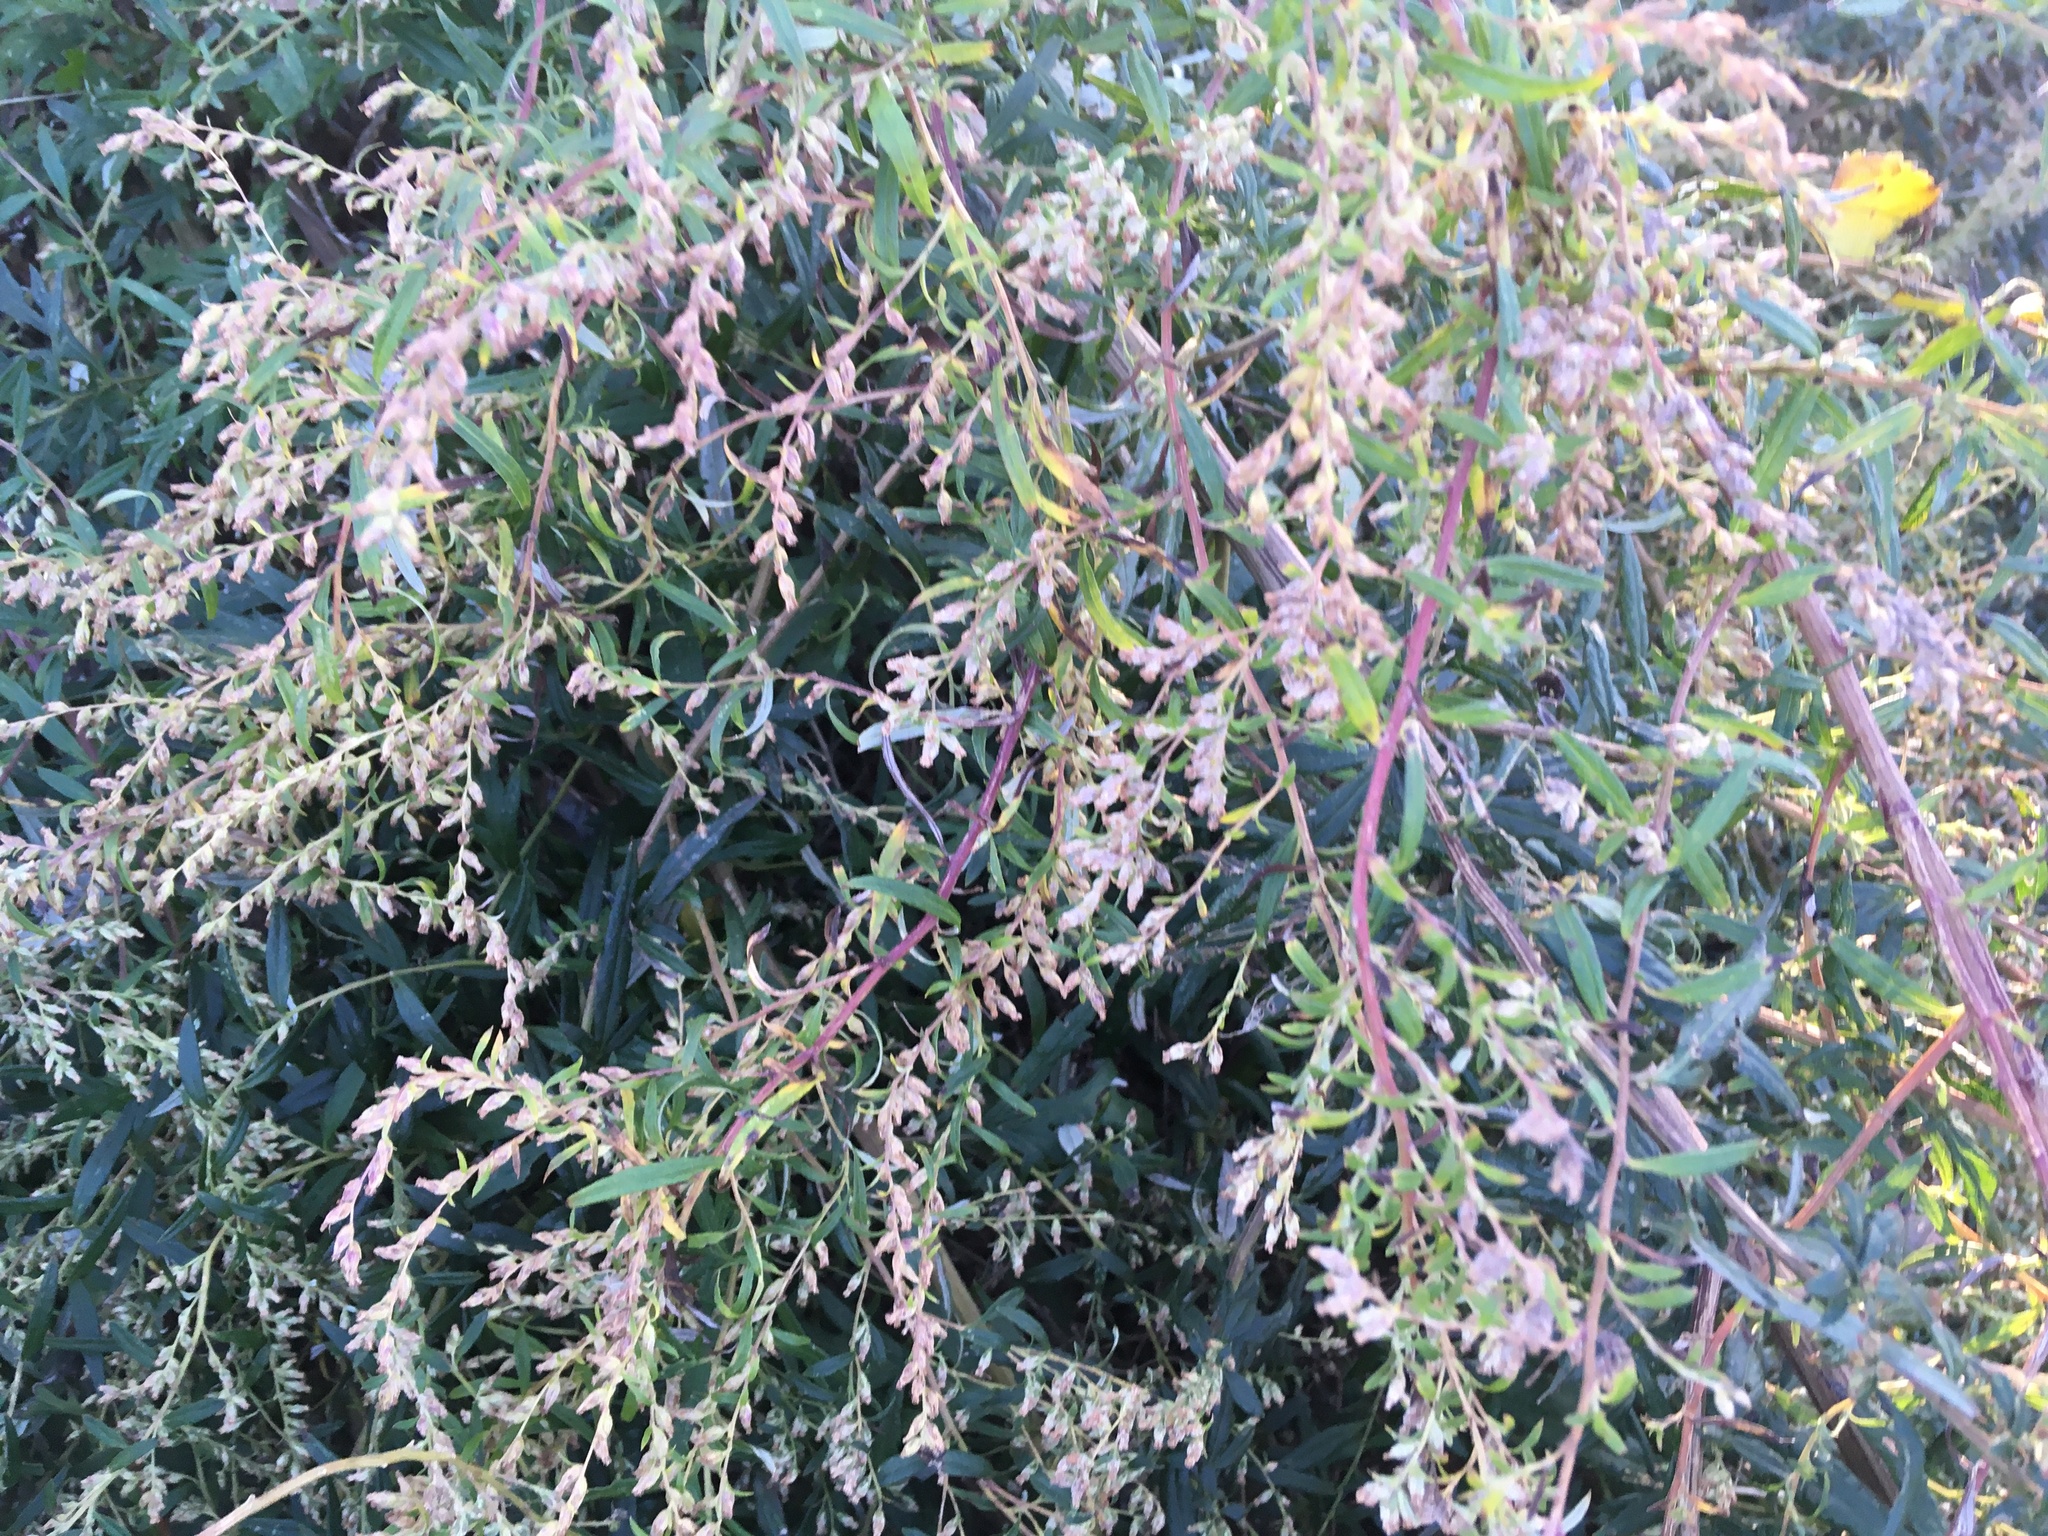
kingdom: Plantae
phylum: Tracheophyta
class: Magnoliopsida
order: Asterales
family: Asteraceae
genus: Artemisia
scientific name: Artemisia vulgaris
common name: Mugwort
